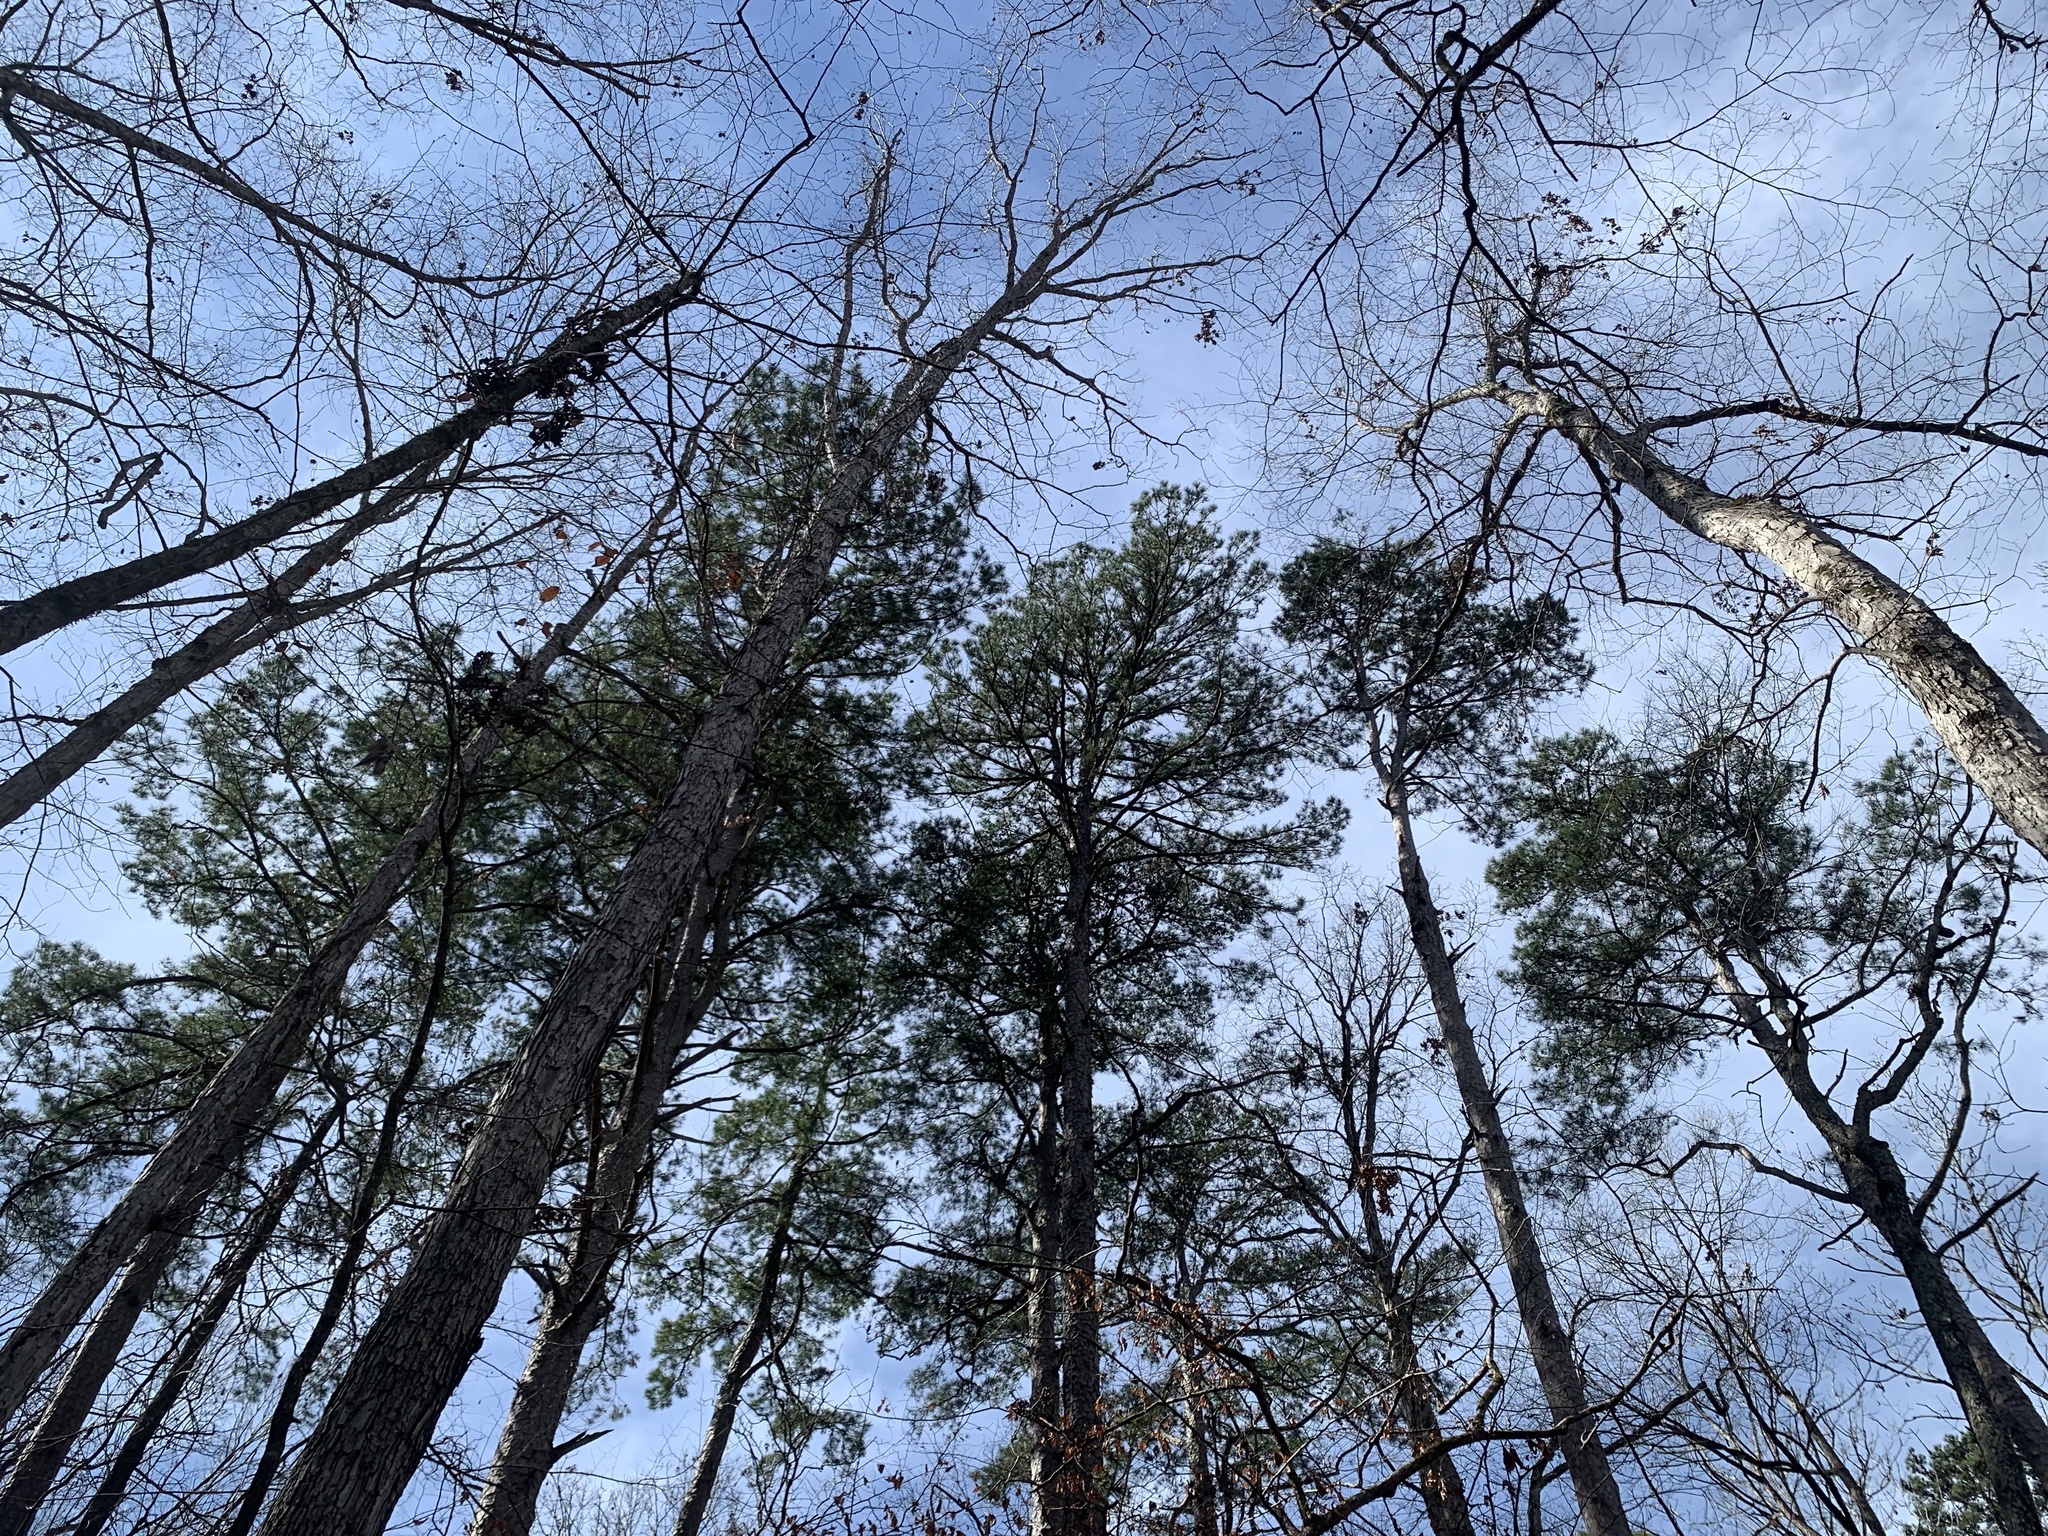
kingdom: Plantae
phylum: Tracheophyta
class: Pinopsida
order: Pinales
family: Pinaceae
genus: Pinus
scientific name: Pinus echinata
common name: Shortleaf pine
